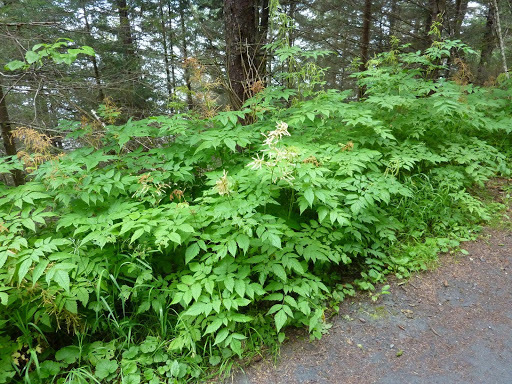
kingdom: Plantae
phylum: Tracheophyta
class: Magnoliopsida
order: Rosales
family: Rosaceae
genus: Aruncus
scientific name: Aruncus dioicus
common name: Buck's-beard
